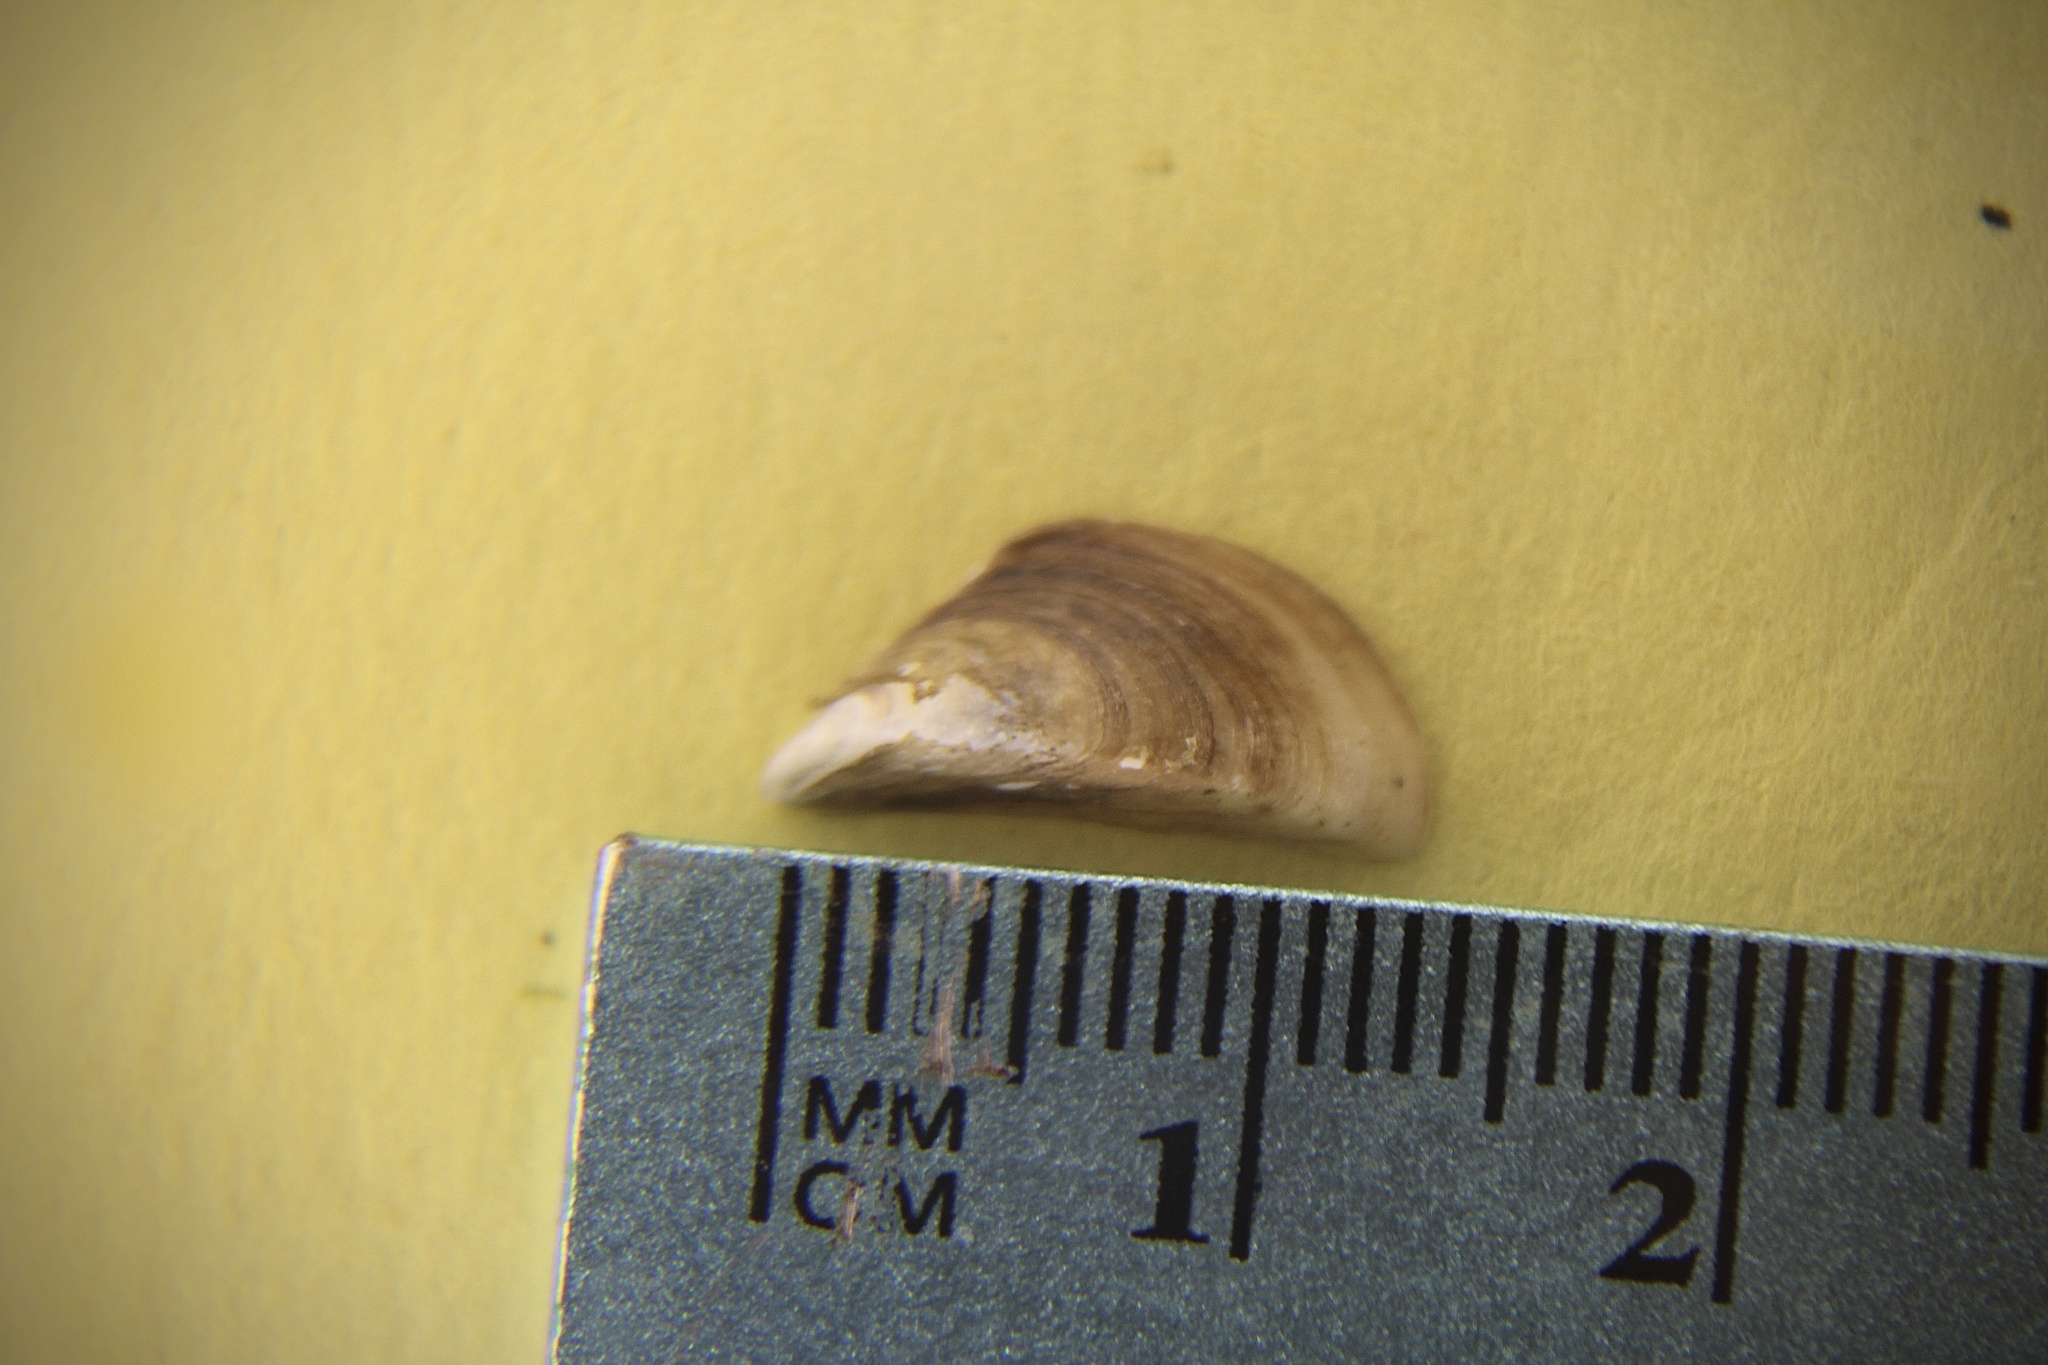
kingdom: Animalia
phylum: Mollusca
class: Bivalvia
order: Myida
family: Dreissenidae
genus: Dreissena
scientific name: Dreissena polymorpha
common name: Zebra mussel
